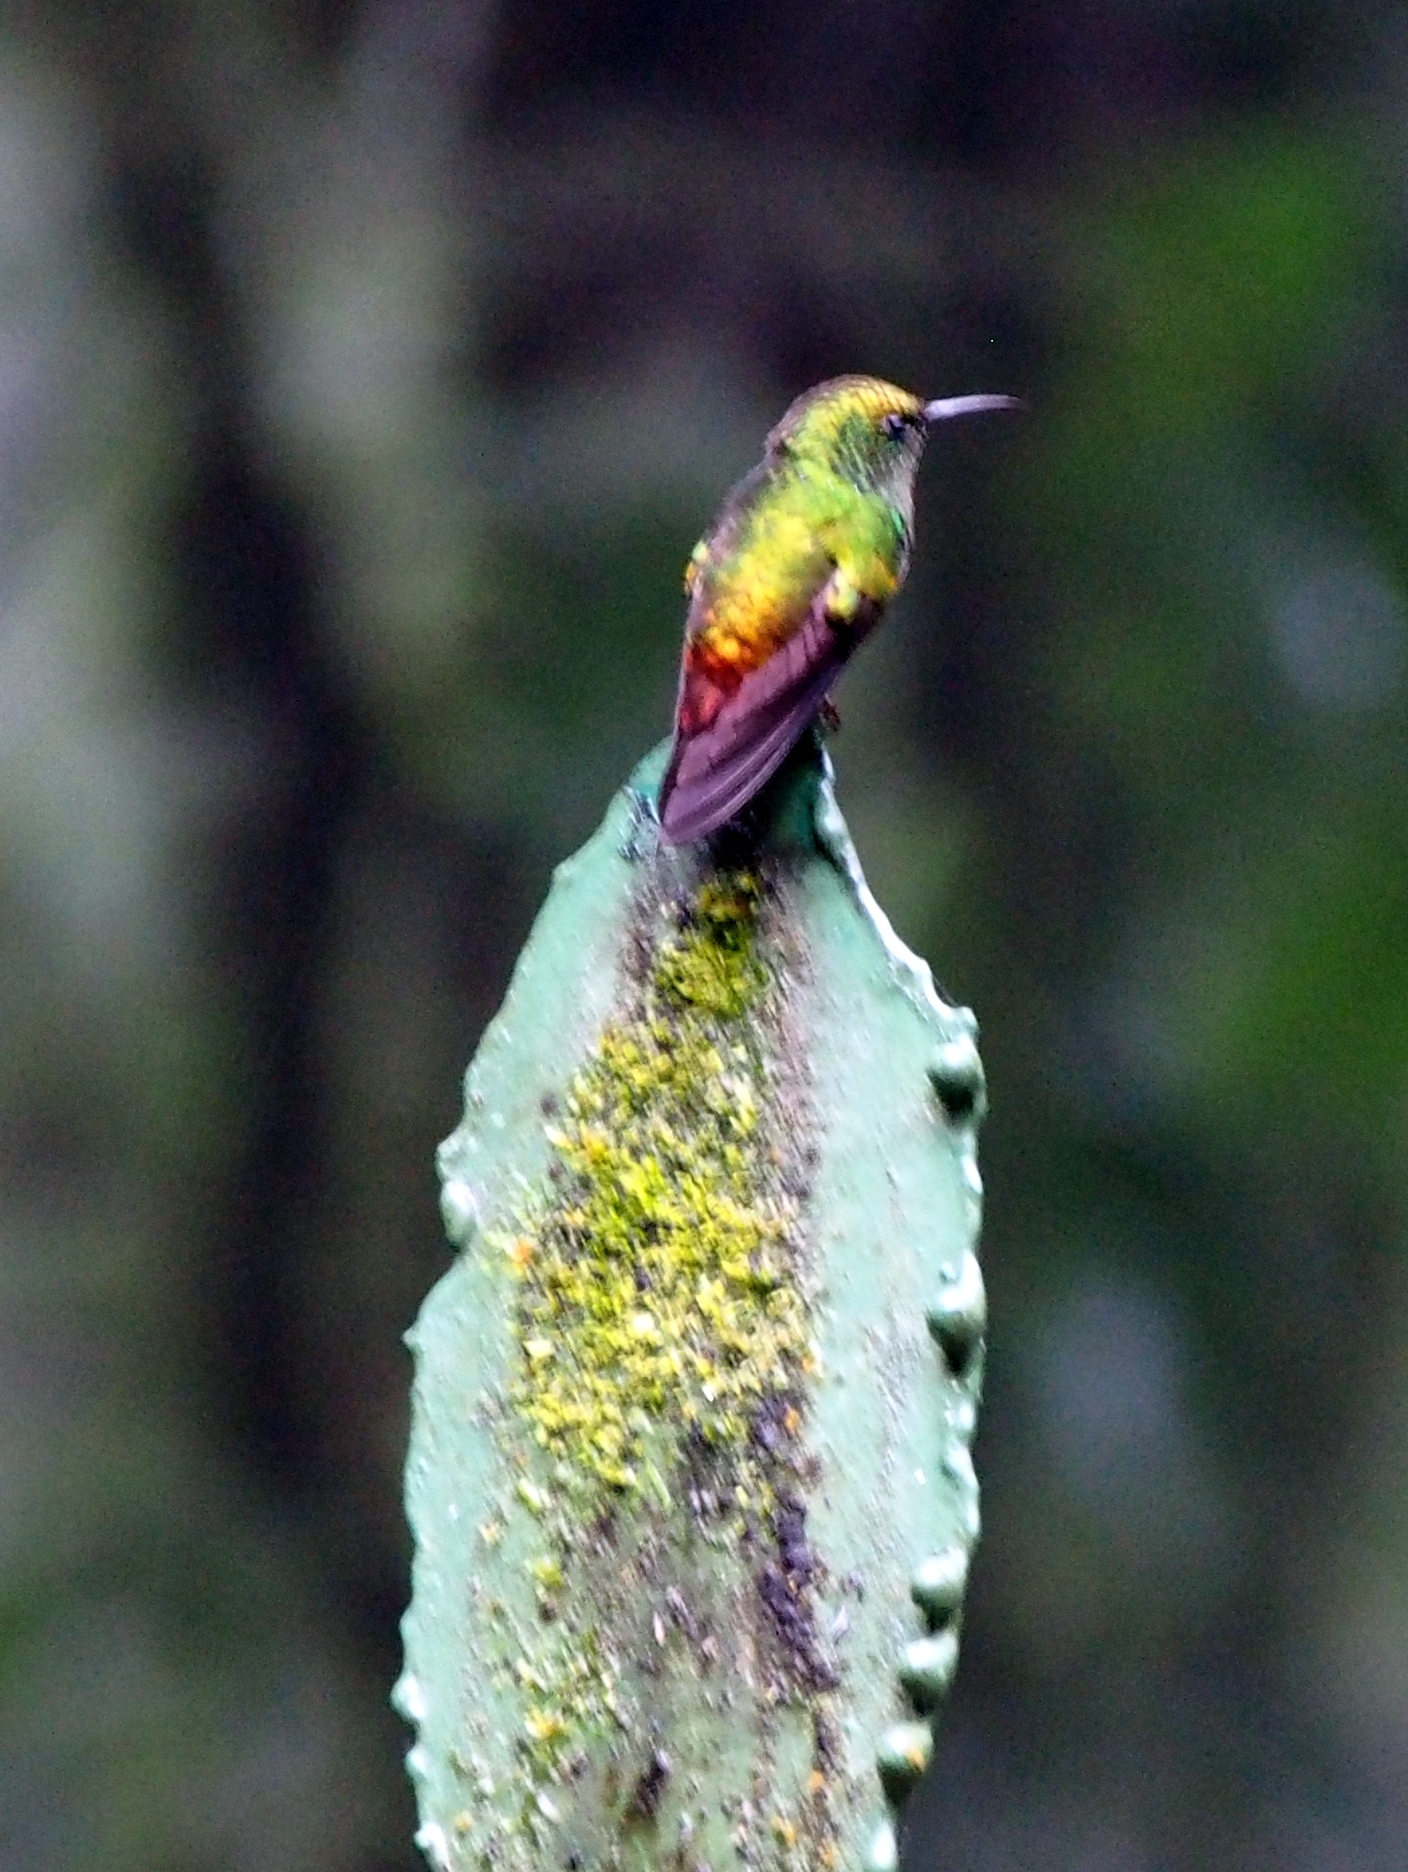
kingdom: Animalia
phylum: Chordata
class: Aves
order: Apodiformes
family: Trochilidae
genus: Microchera
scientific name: Microchera cupreiceps
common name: Coppery-headed emerald
